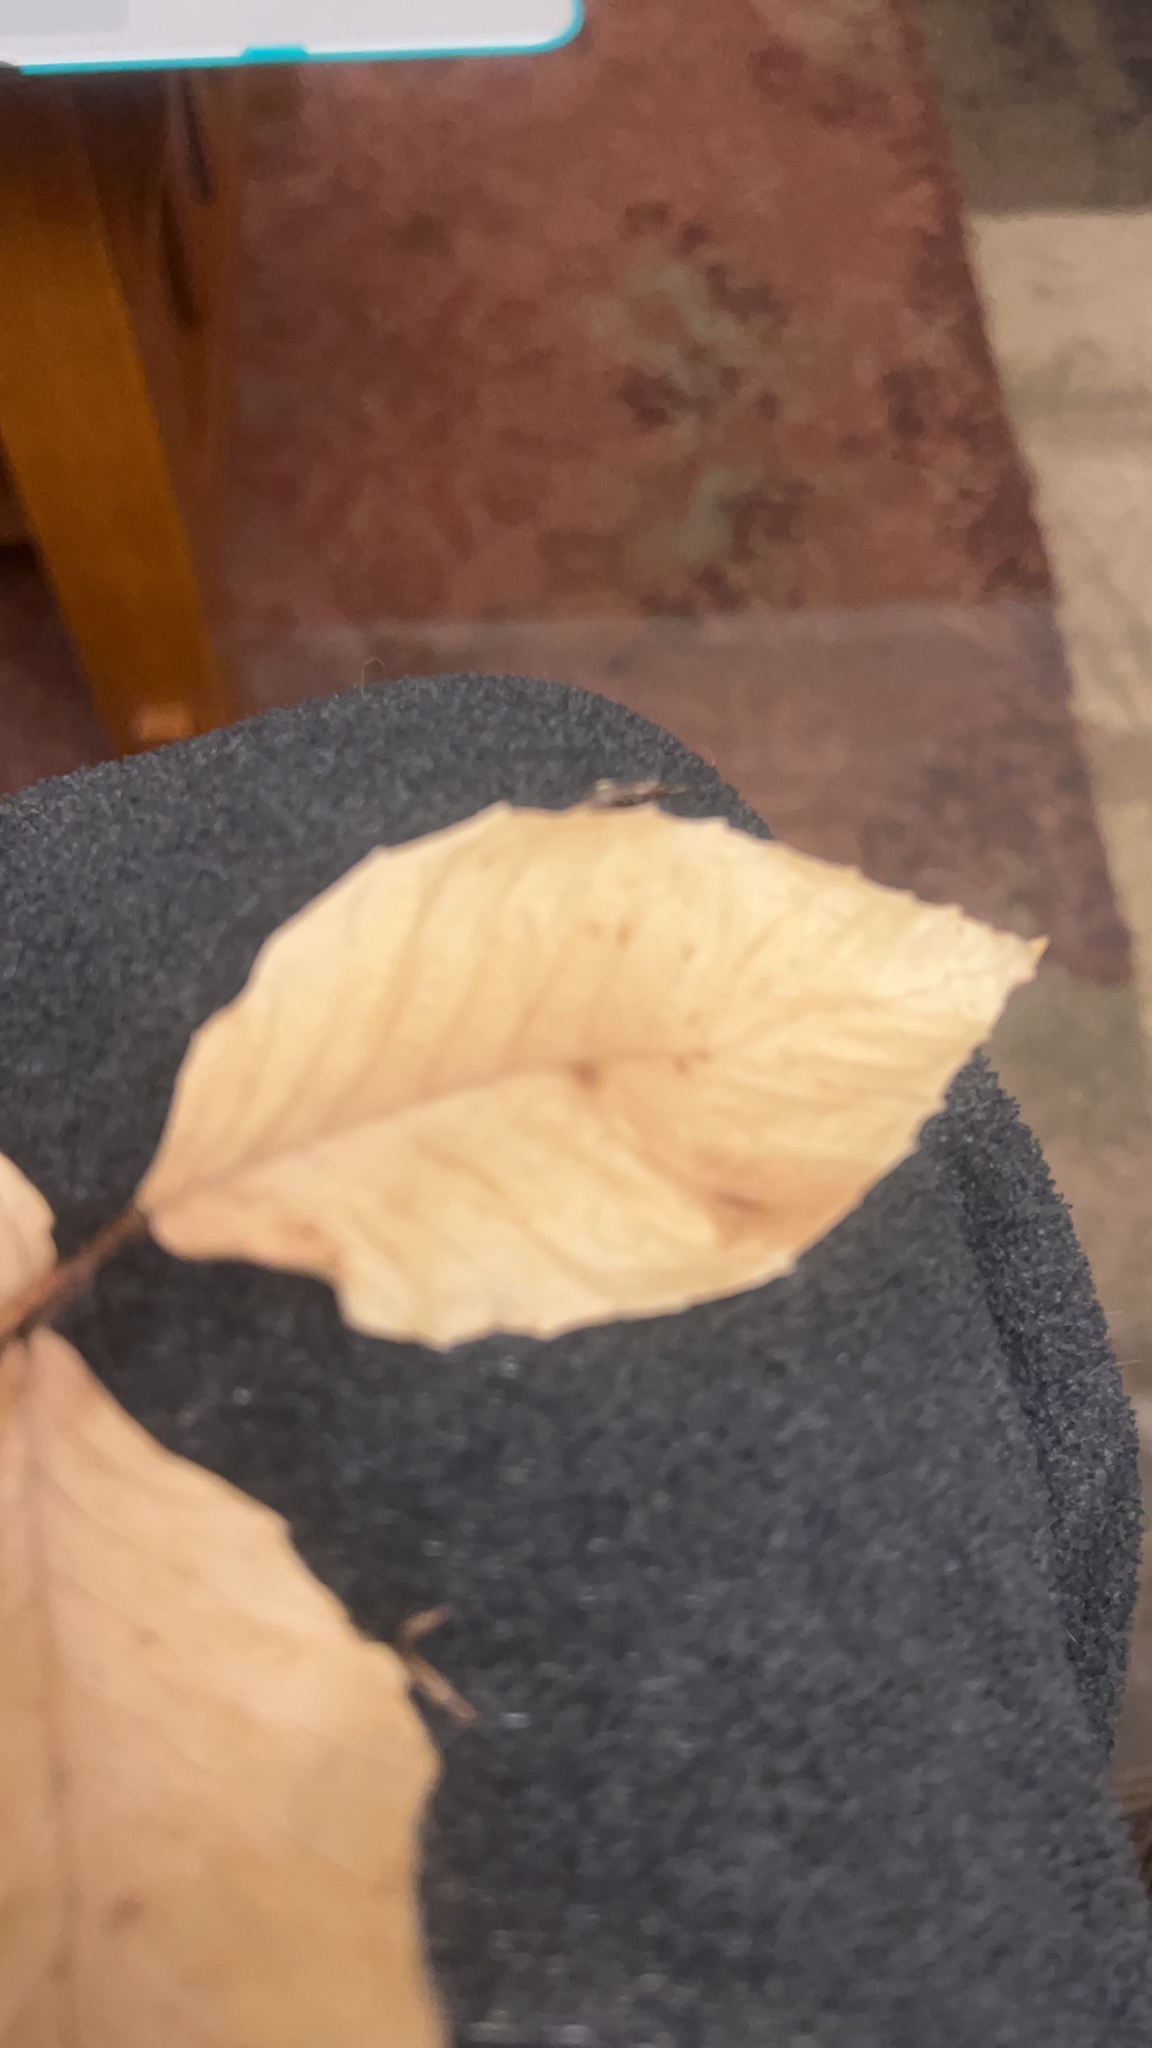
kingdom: Plantae
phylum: Tracheophyta
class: Magnoliopsida
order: Fagales
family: Fagaceae
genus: Fagus
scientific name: Fagus grandifolia
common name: American beech
